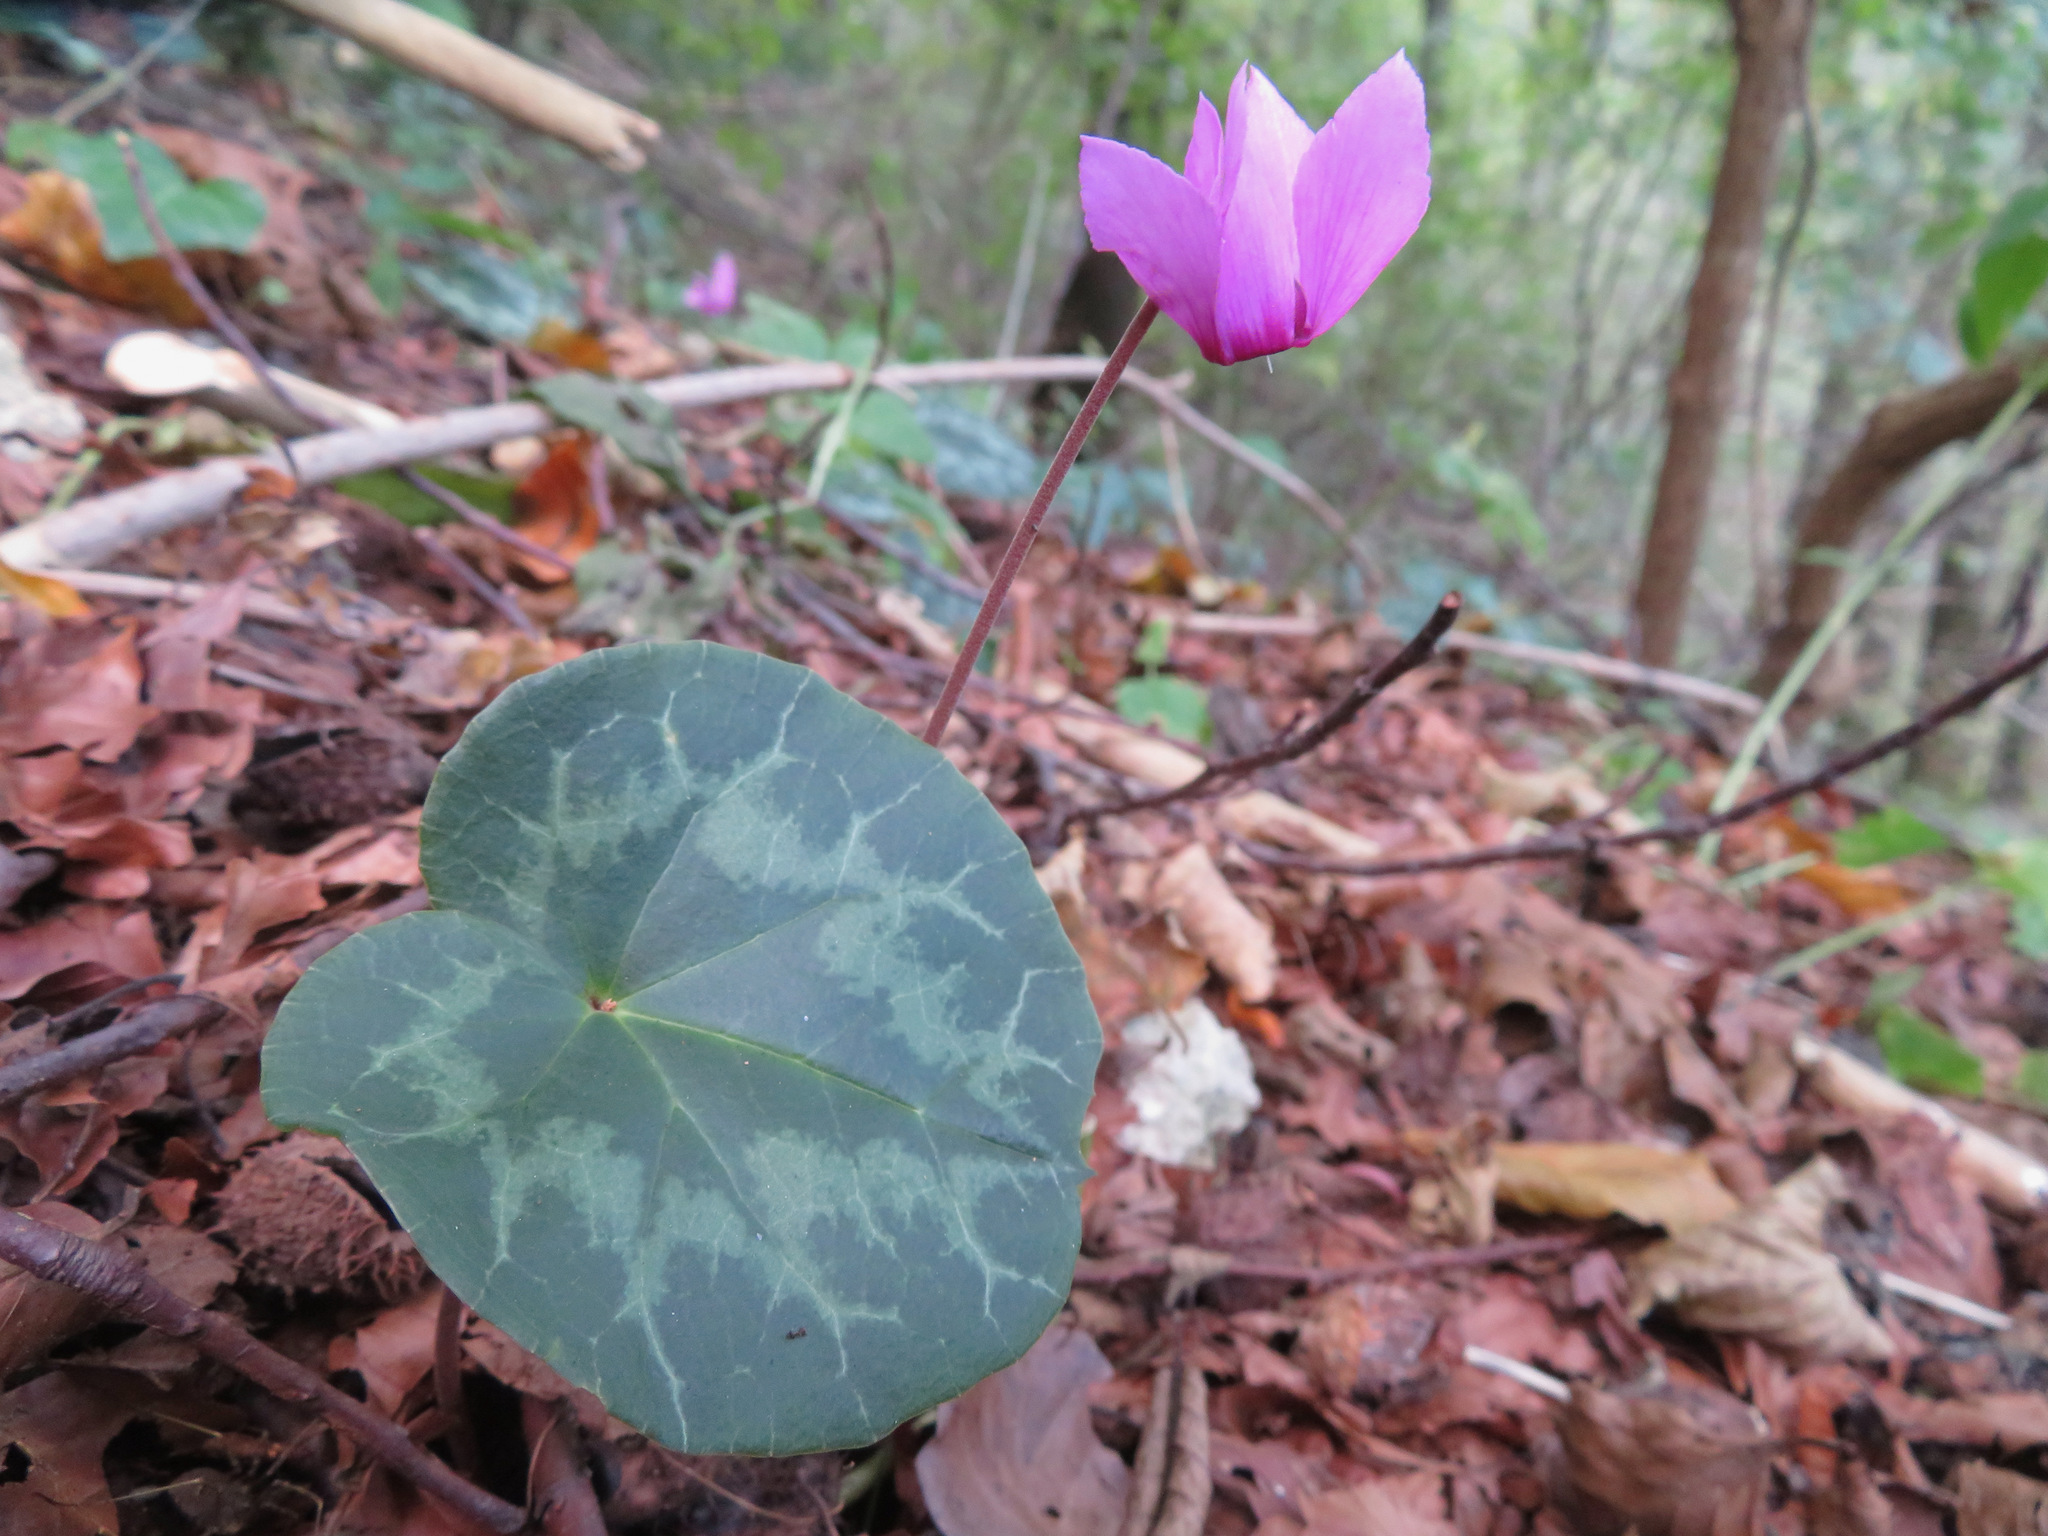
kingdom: Plantae
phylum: Tracheophyta
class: Magnoliopsida
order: Ericales
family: Primulaceae
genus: Cyclamen
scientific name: Cyclamen purpurascens
